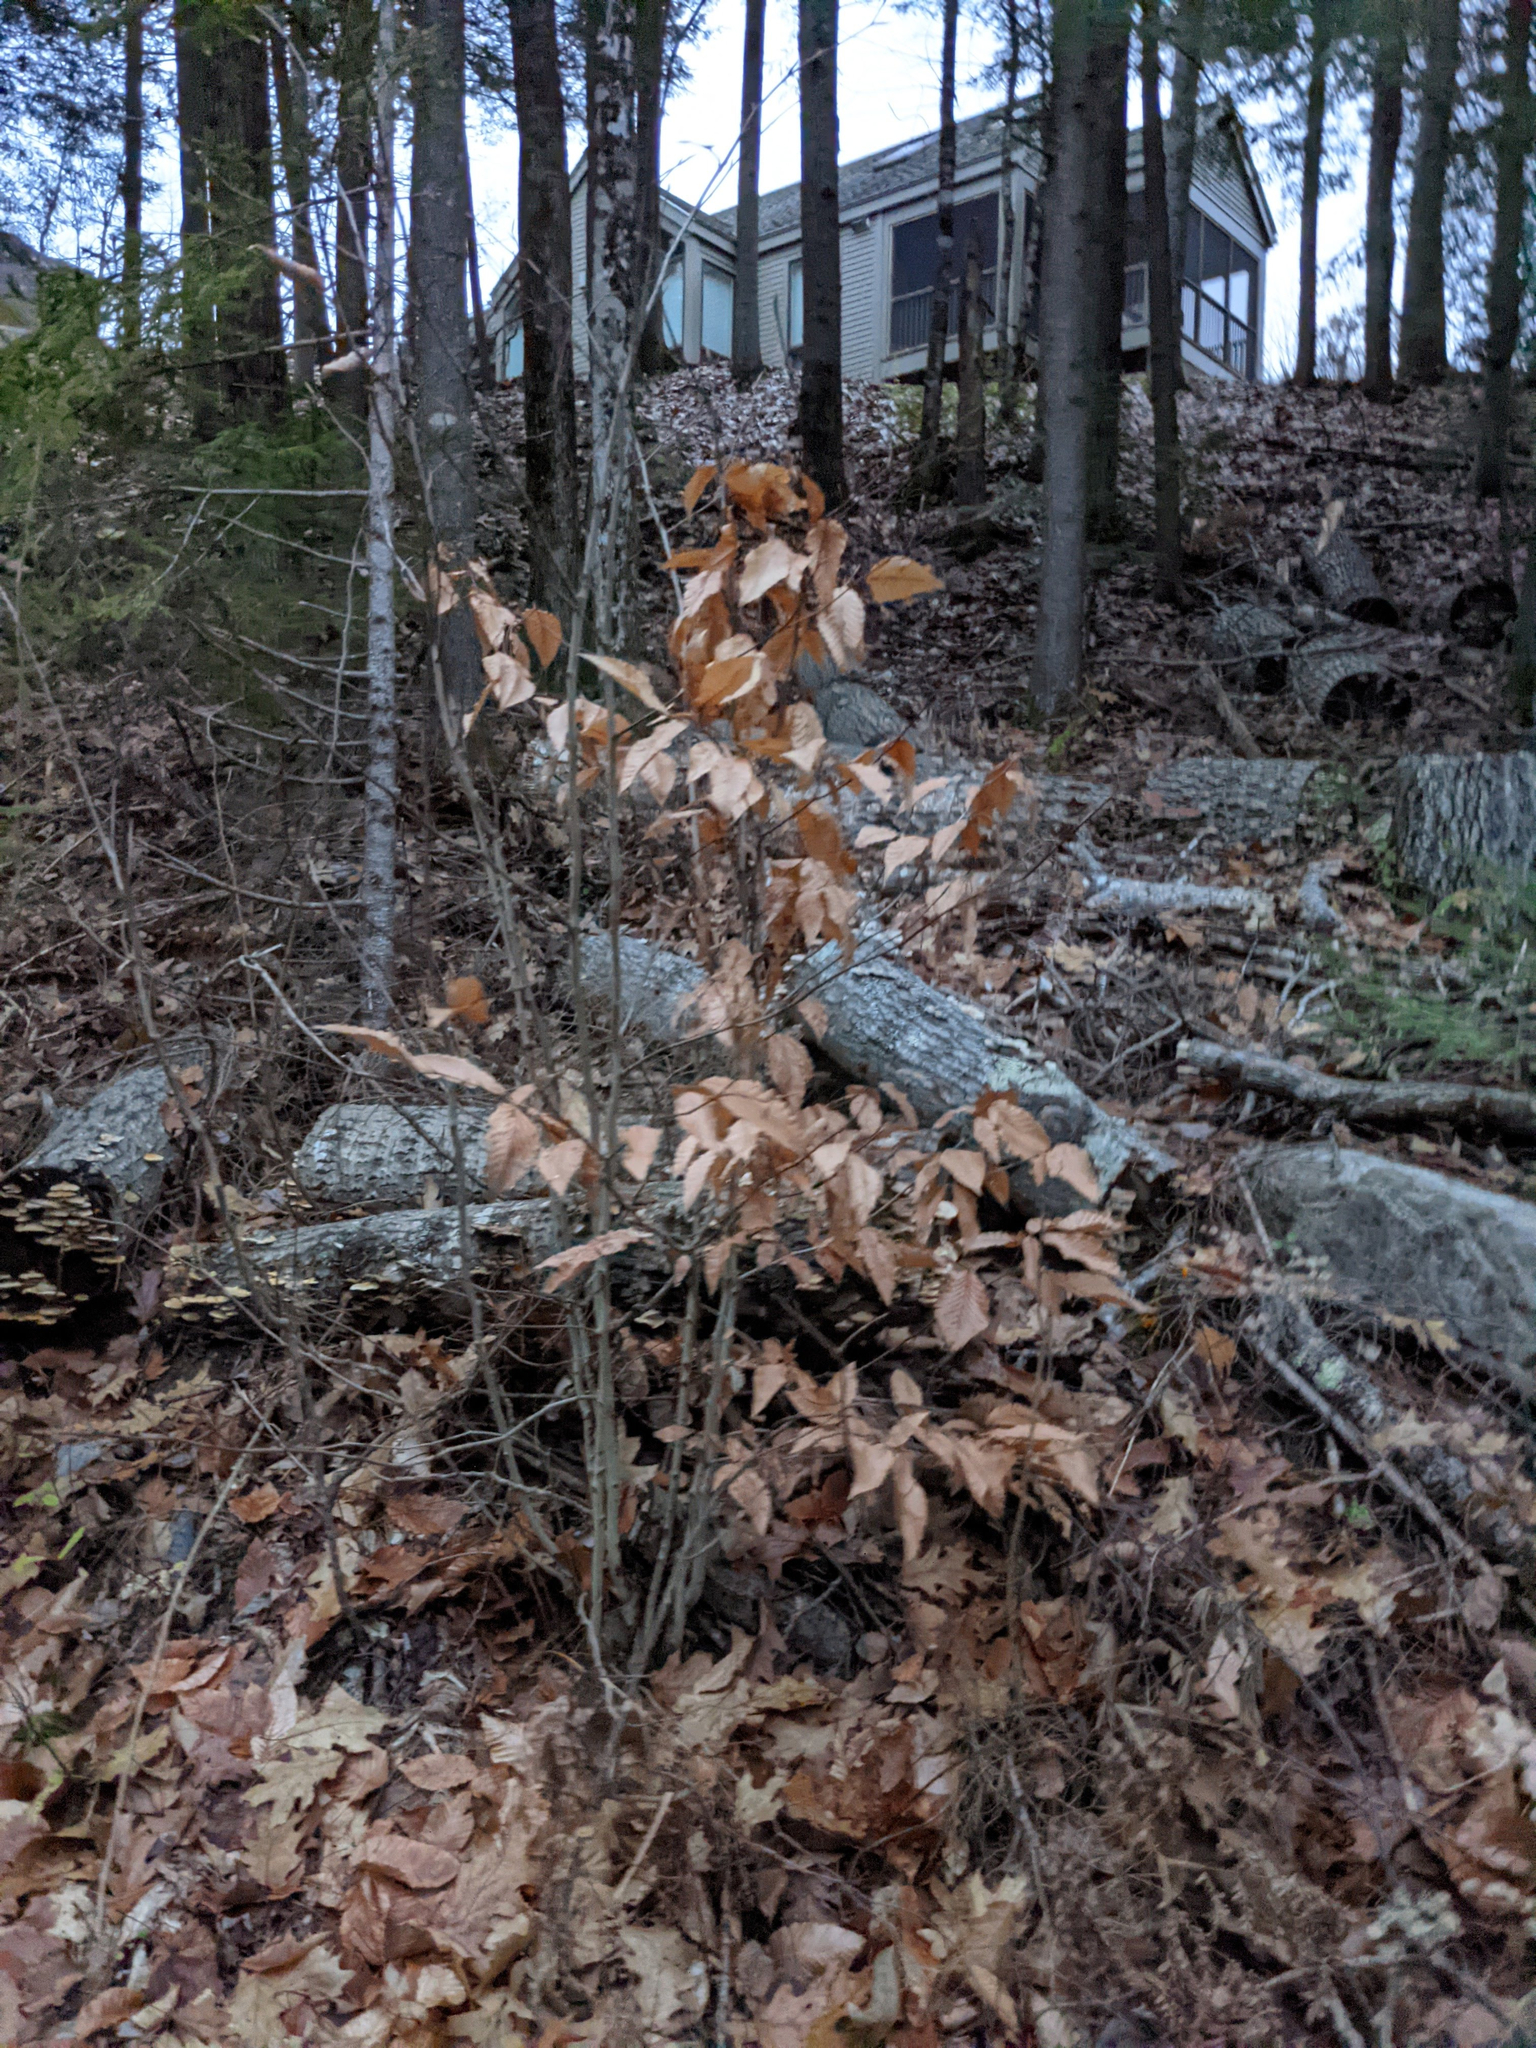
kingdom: Plantae
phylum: Tracheophyta
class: Magnoliopsida
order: Fagales
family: Fagaceae
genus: Fagus
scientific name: Fagus grandifolia
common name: American beech
